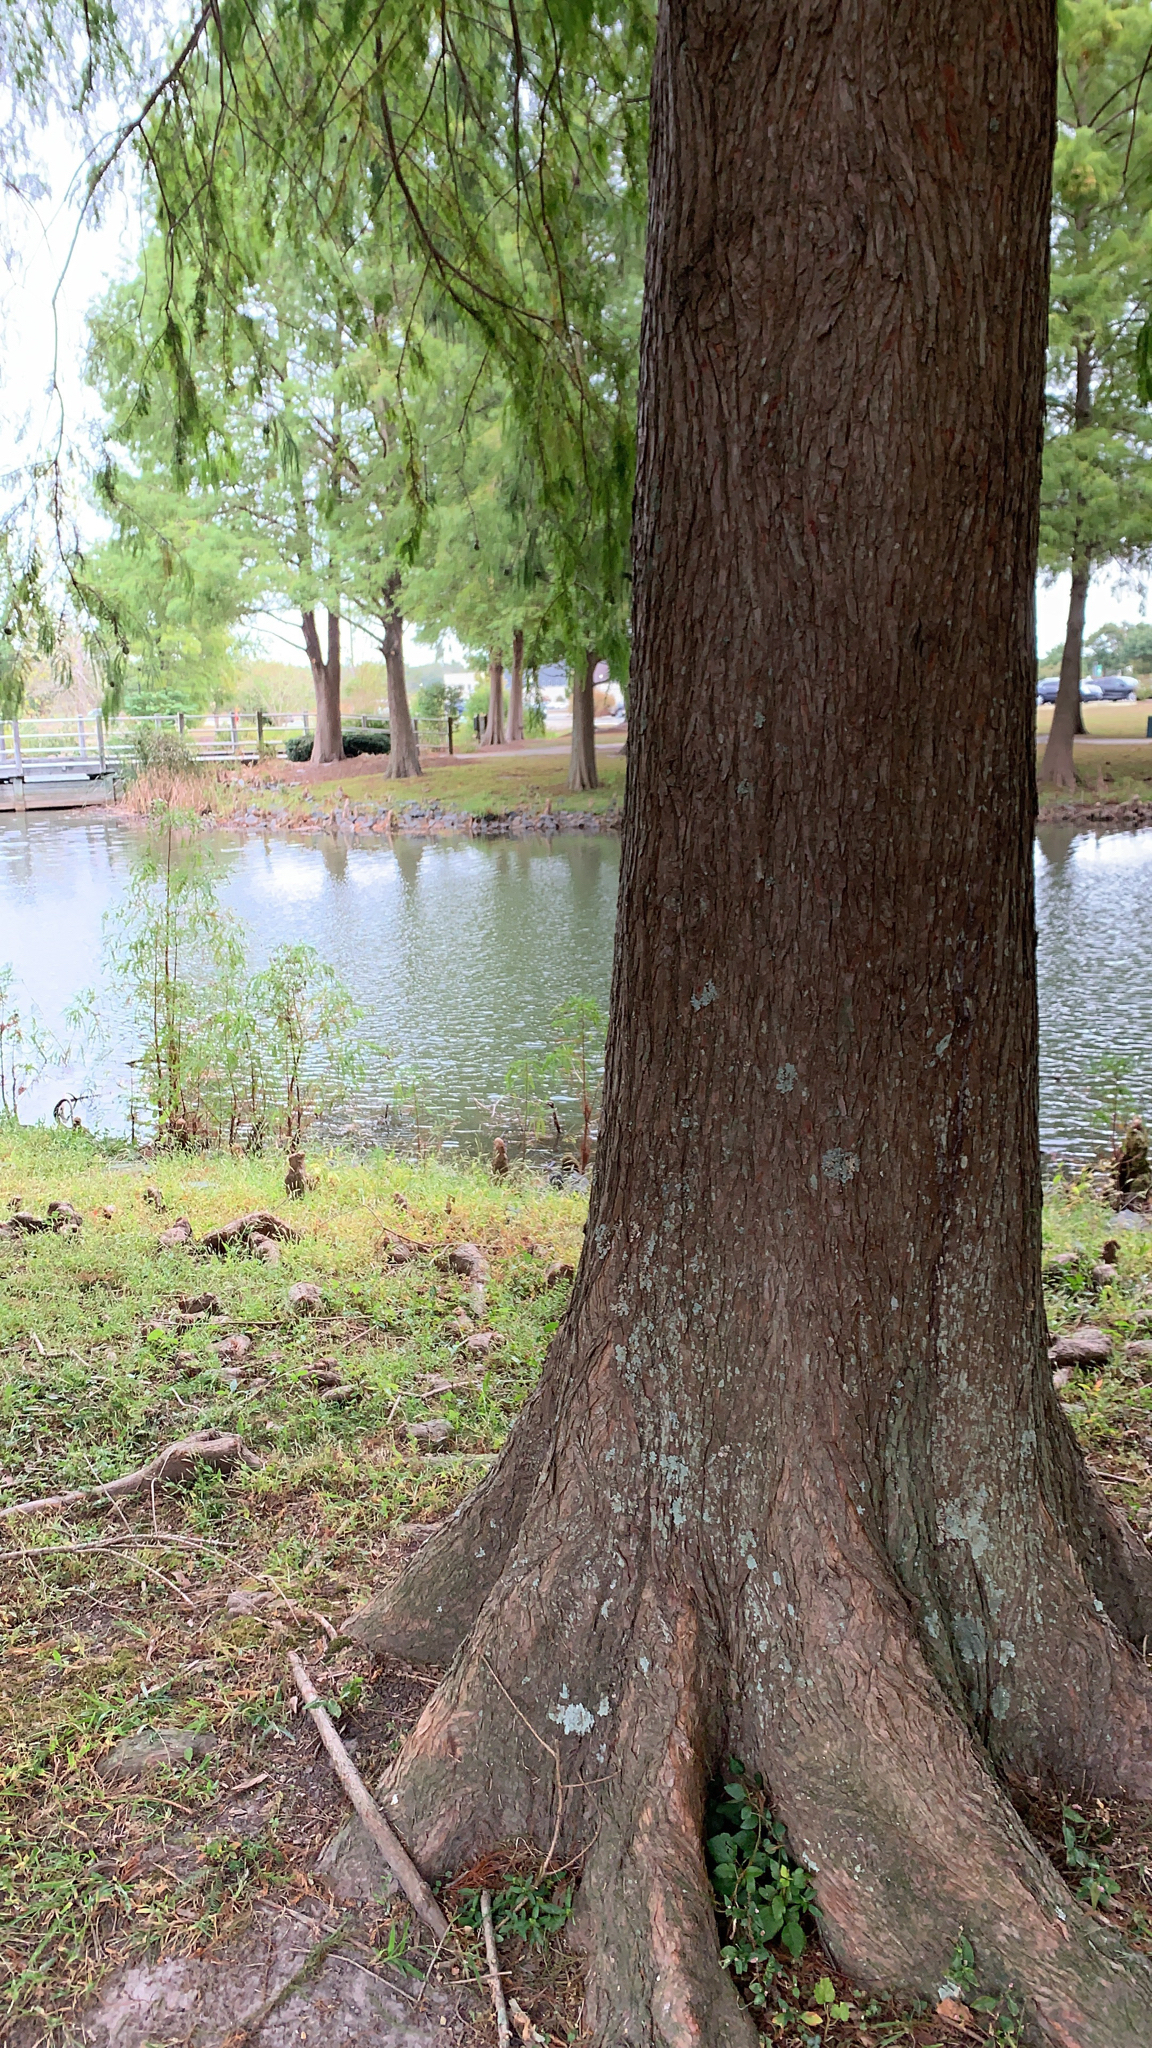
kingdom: Plantae
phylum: Tracheophyta
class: Pinopsida
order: Pinales
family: Cupressaceae
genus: Taxodium
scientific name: Taxodium distichum
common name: Bald cypress
